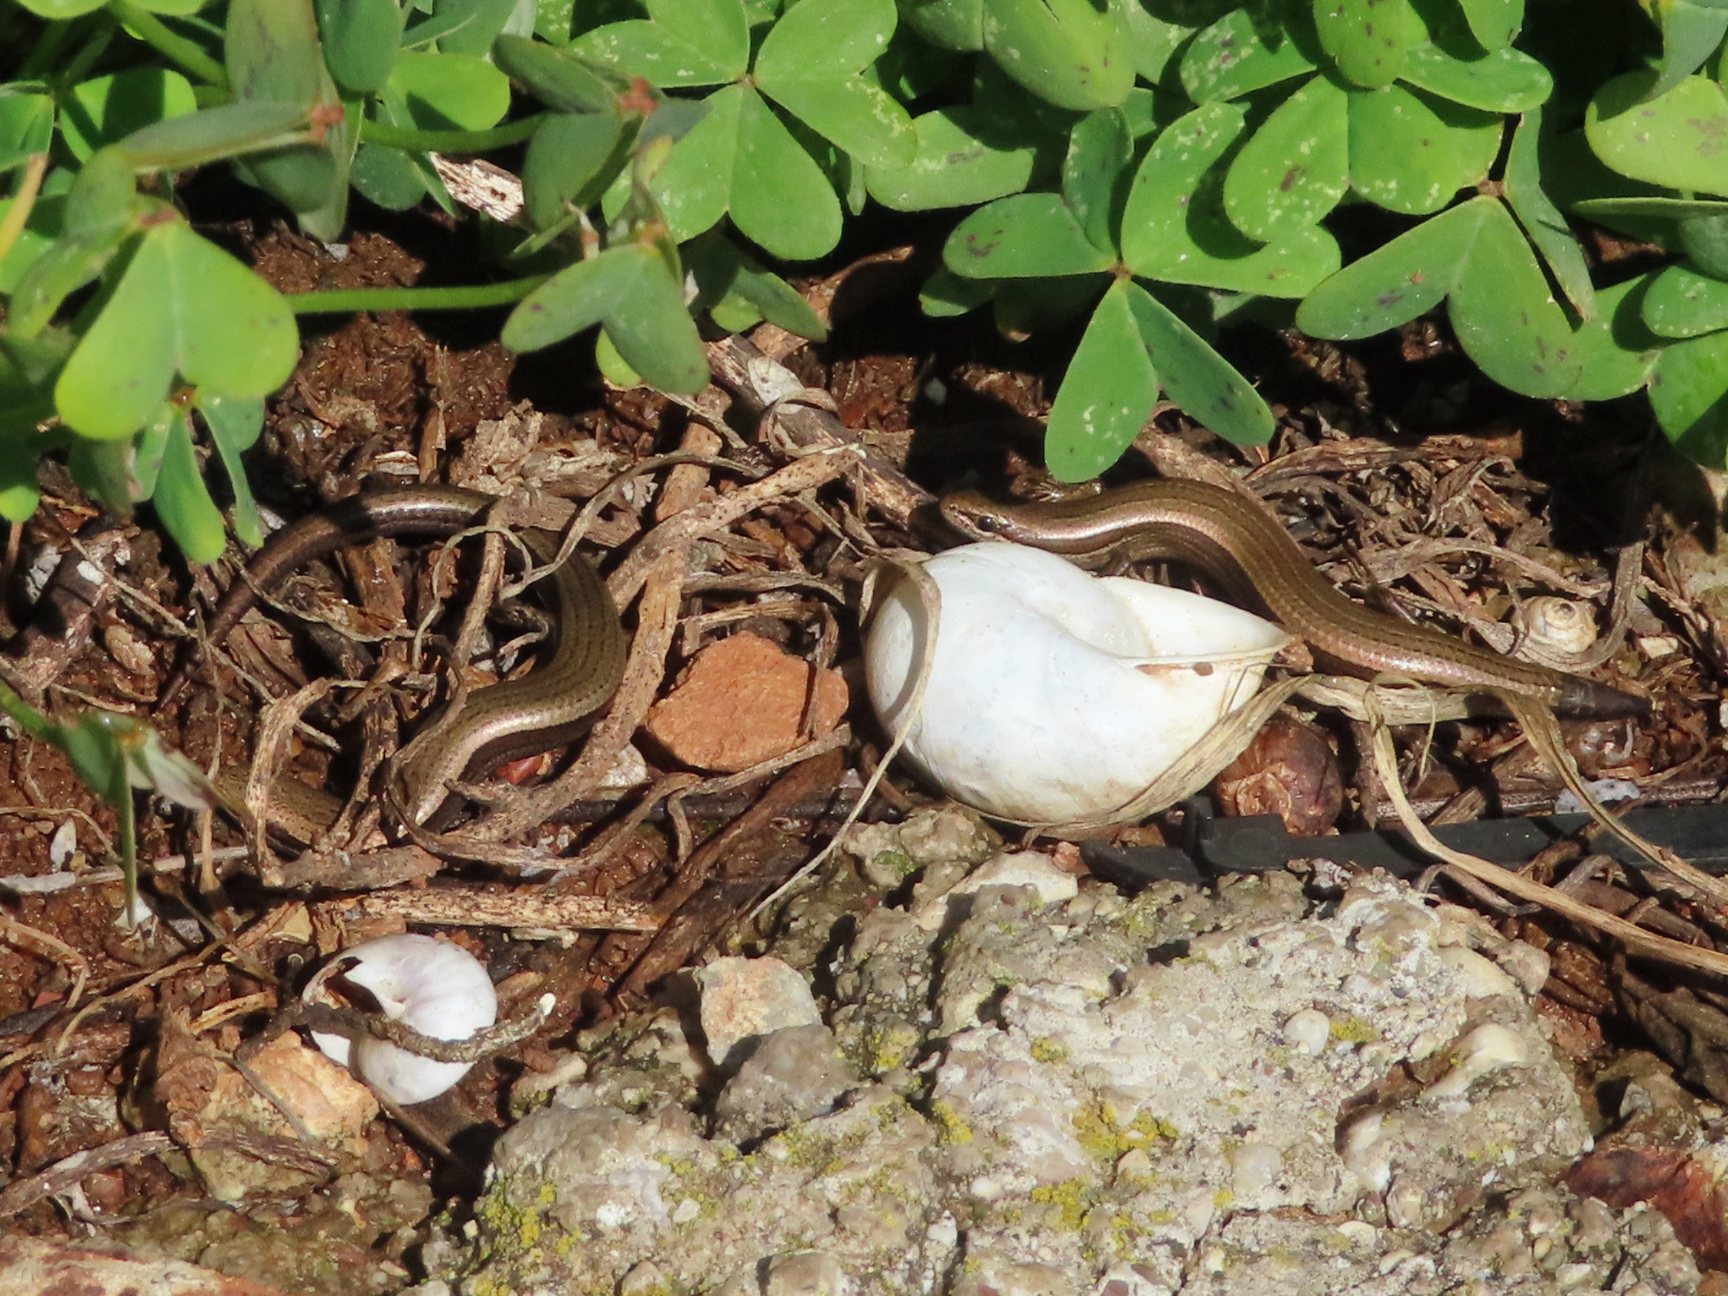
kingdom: Animalia
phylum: Chordata
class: Squamata
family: Scincidae
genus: Ablepharus
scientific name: Ablepharus kitaibelii
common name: Juniper skink
